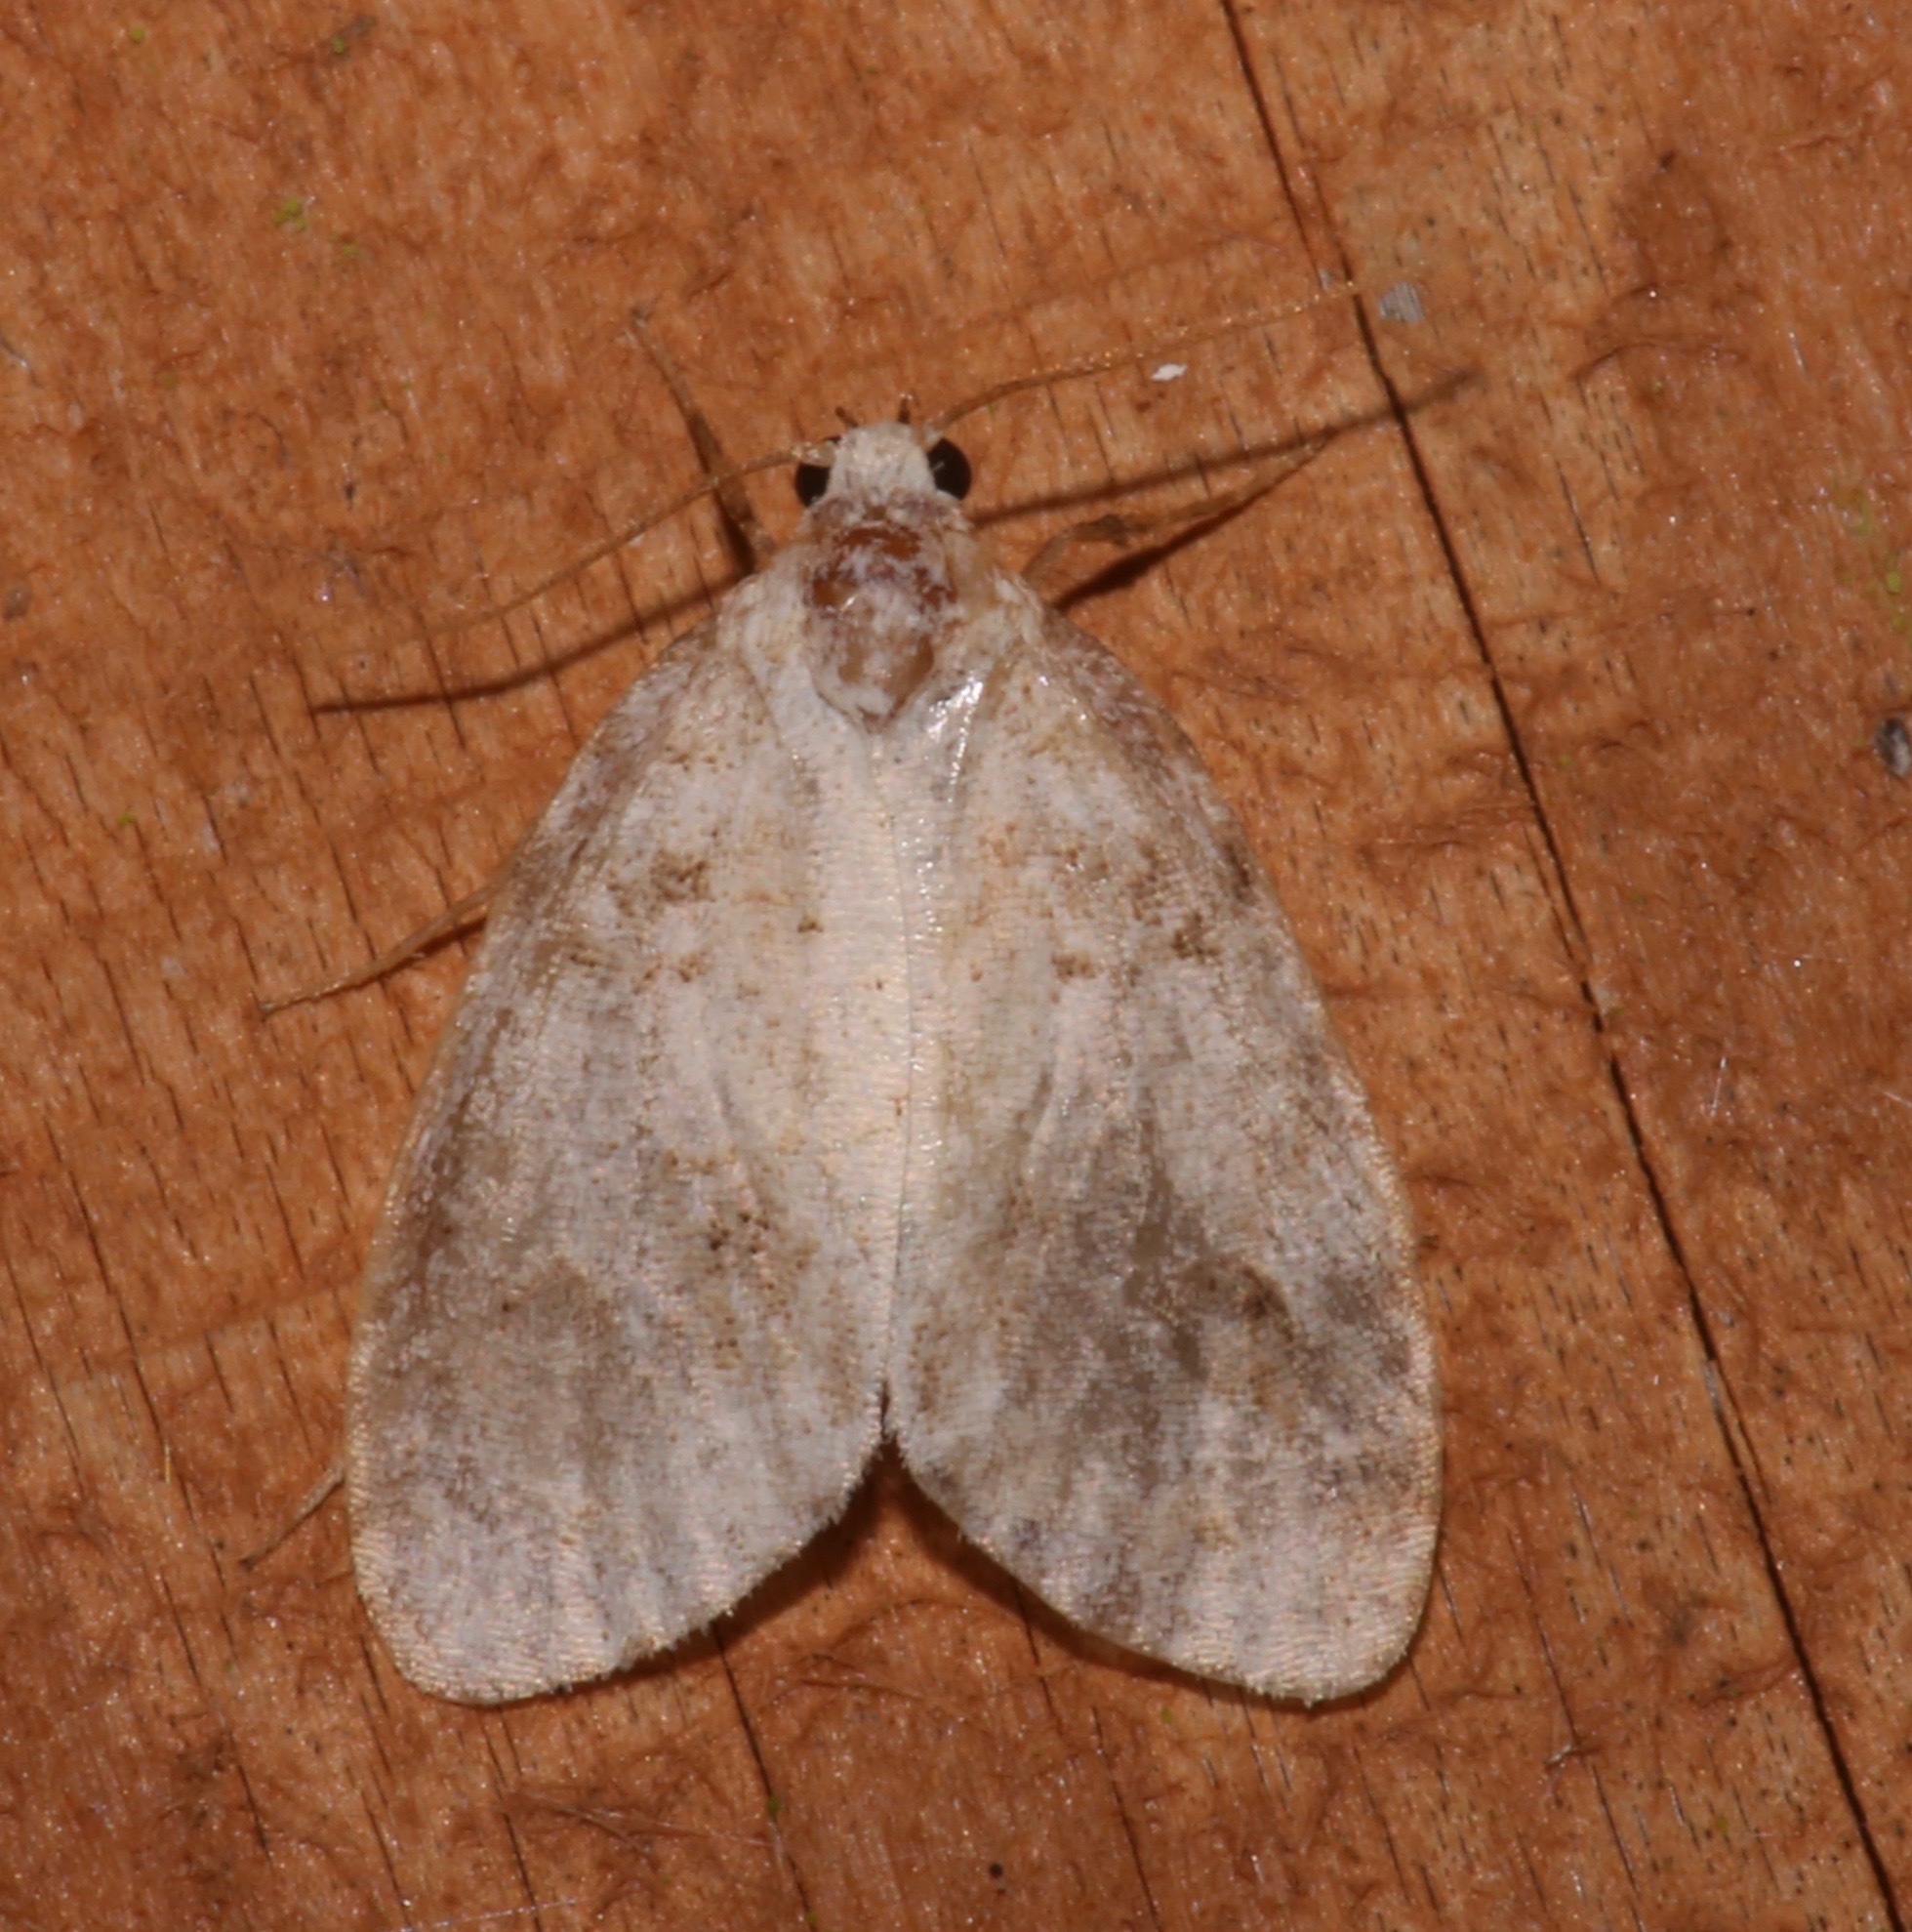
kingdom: Animalia
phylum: Arthropoda
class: Insecta
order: Lepidoptera
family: Erebidae
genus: Clemensia
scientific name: Clemensia ochreata
